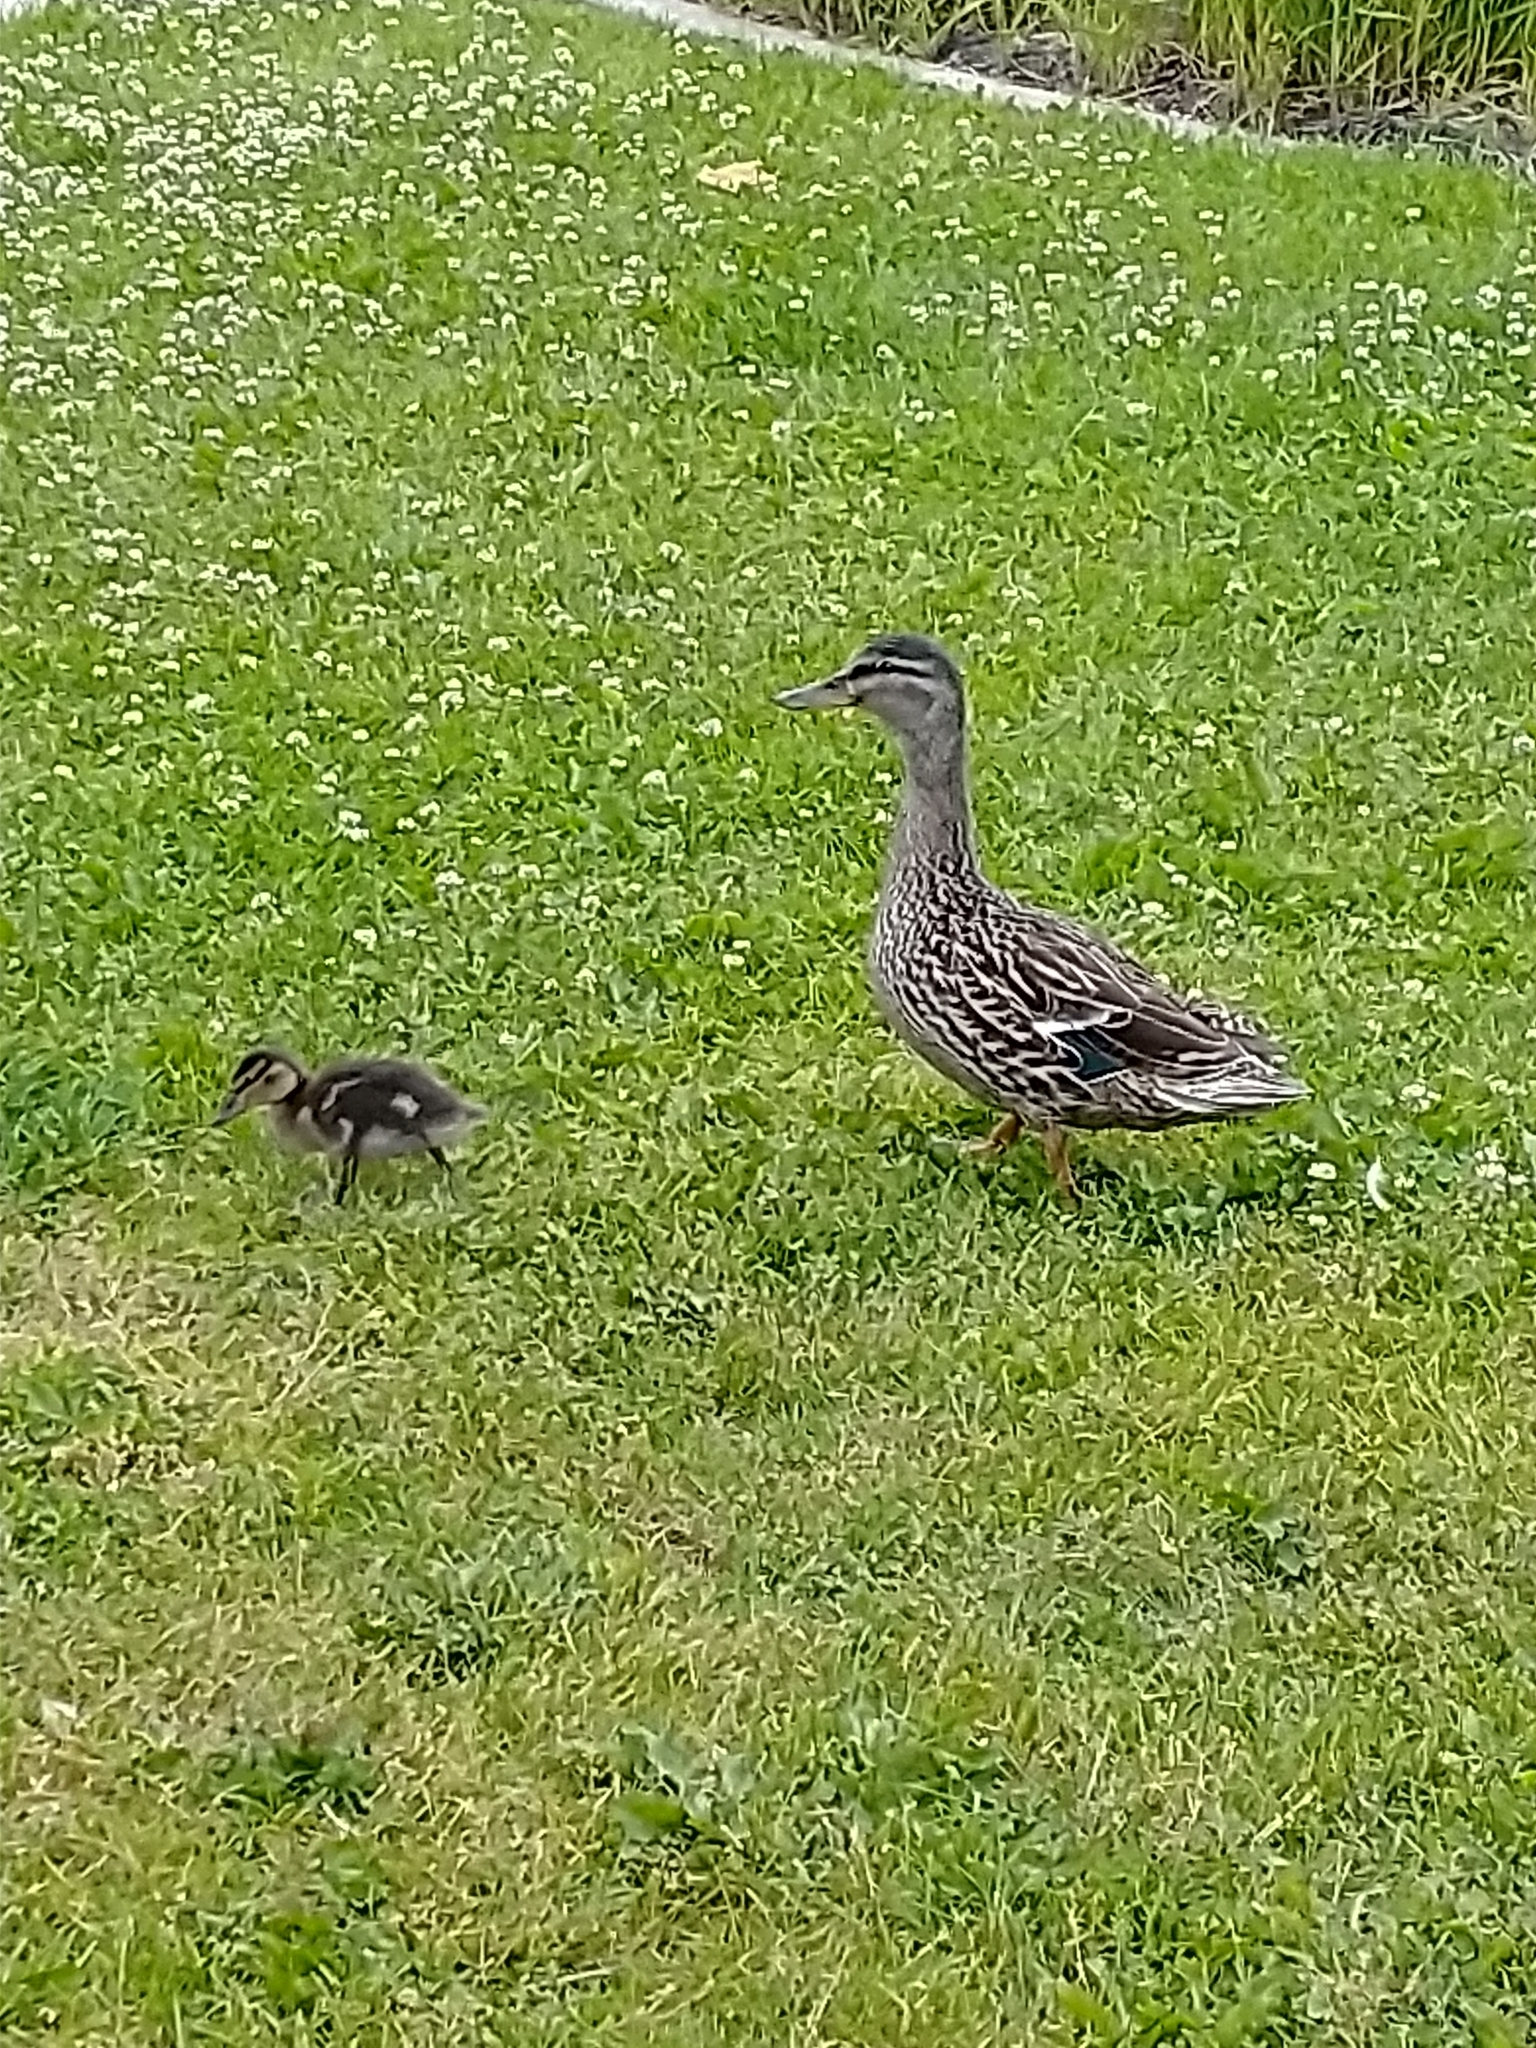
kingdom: Animalia
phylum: Chordata
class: Aves
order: Anseriformes
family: Anatidae
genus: Anas
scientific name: Anas platyrhynchos
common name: Mallard
